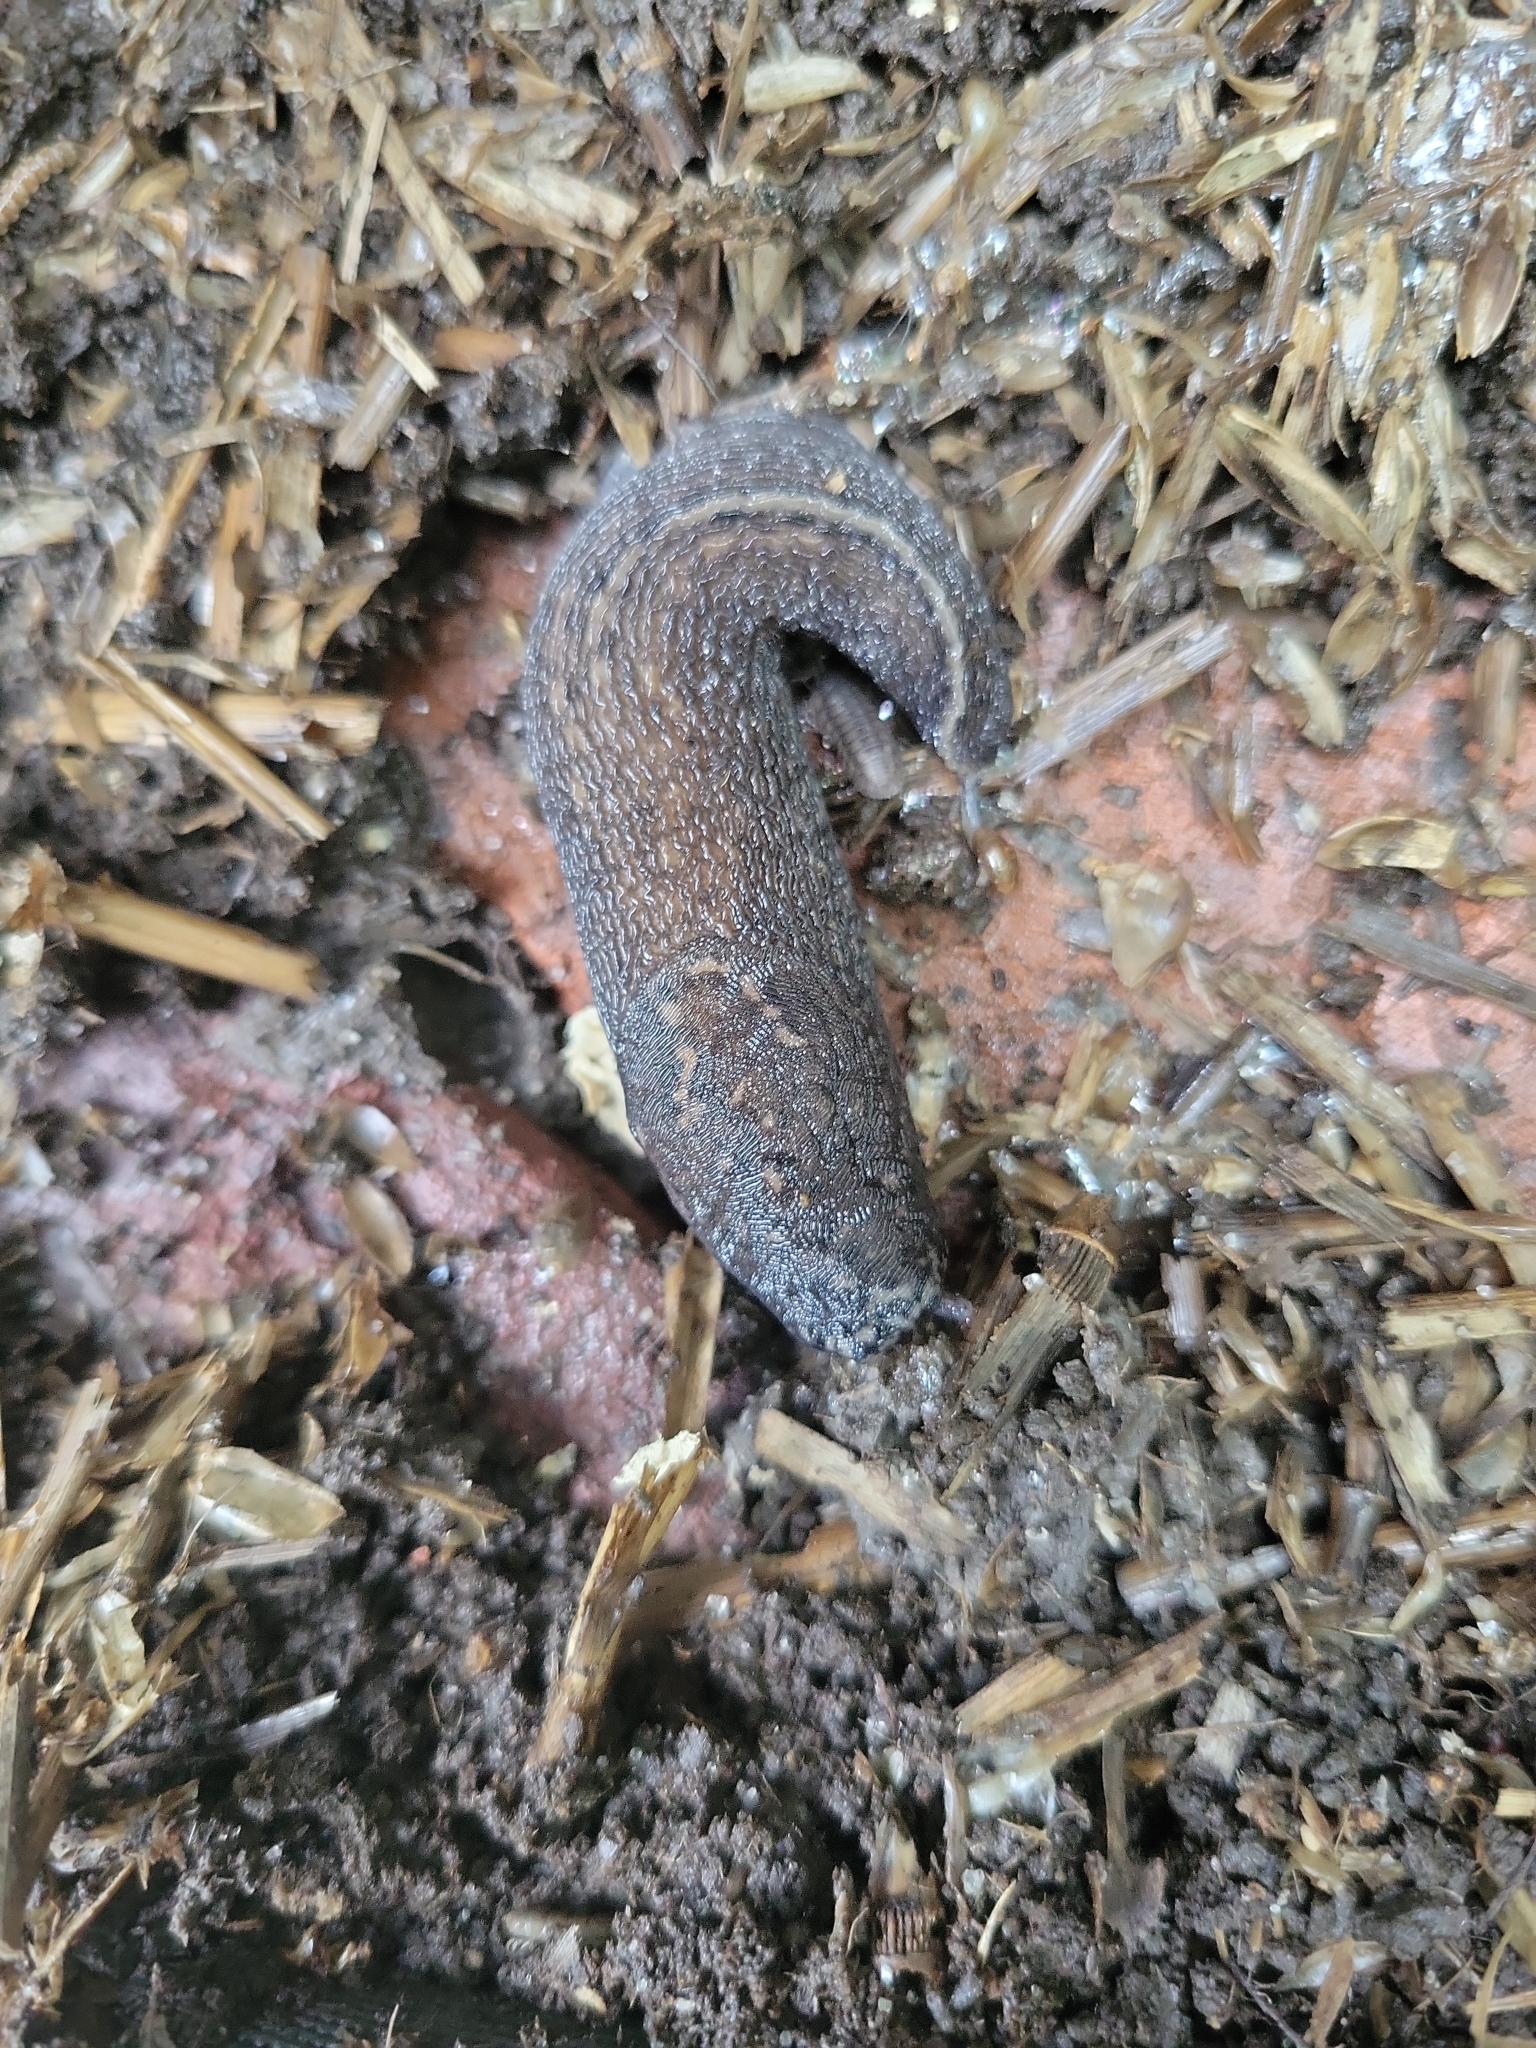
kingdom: Animalia
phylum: Mollusca
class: Gastropoda
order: Stylommatophora
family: Limacidae
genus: Limax
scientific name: Limax maximus
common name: Great grey slug
